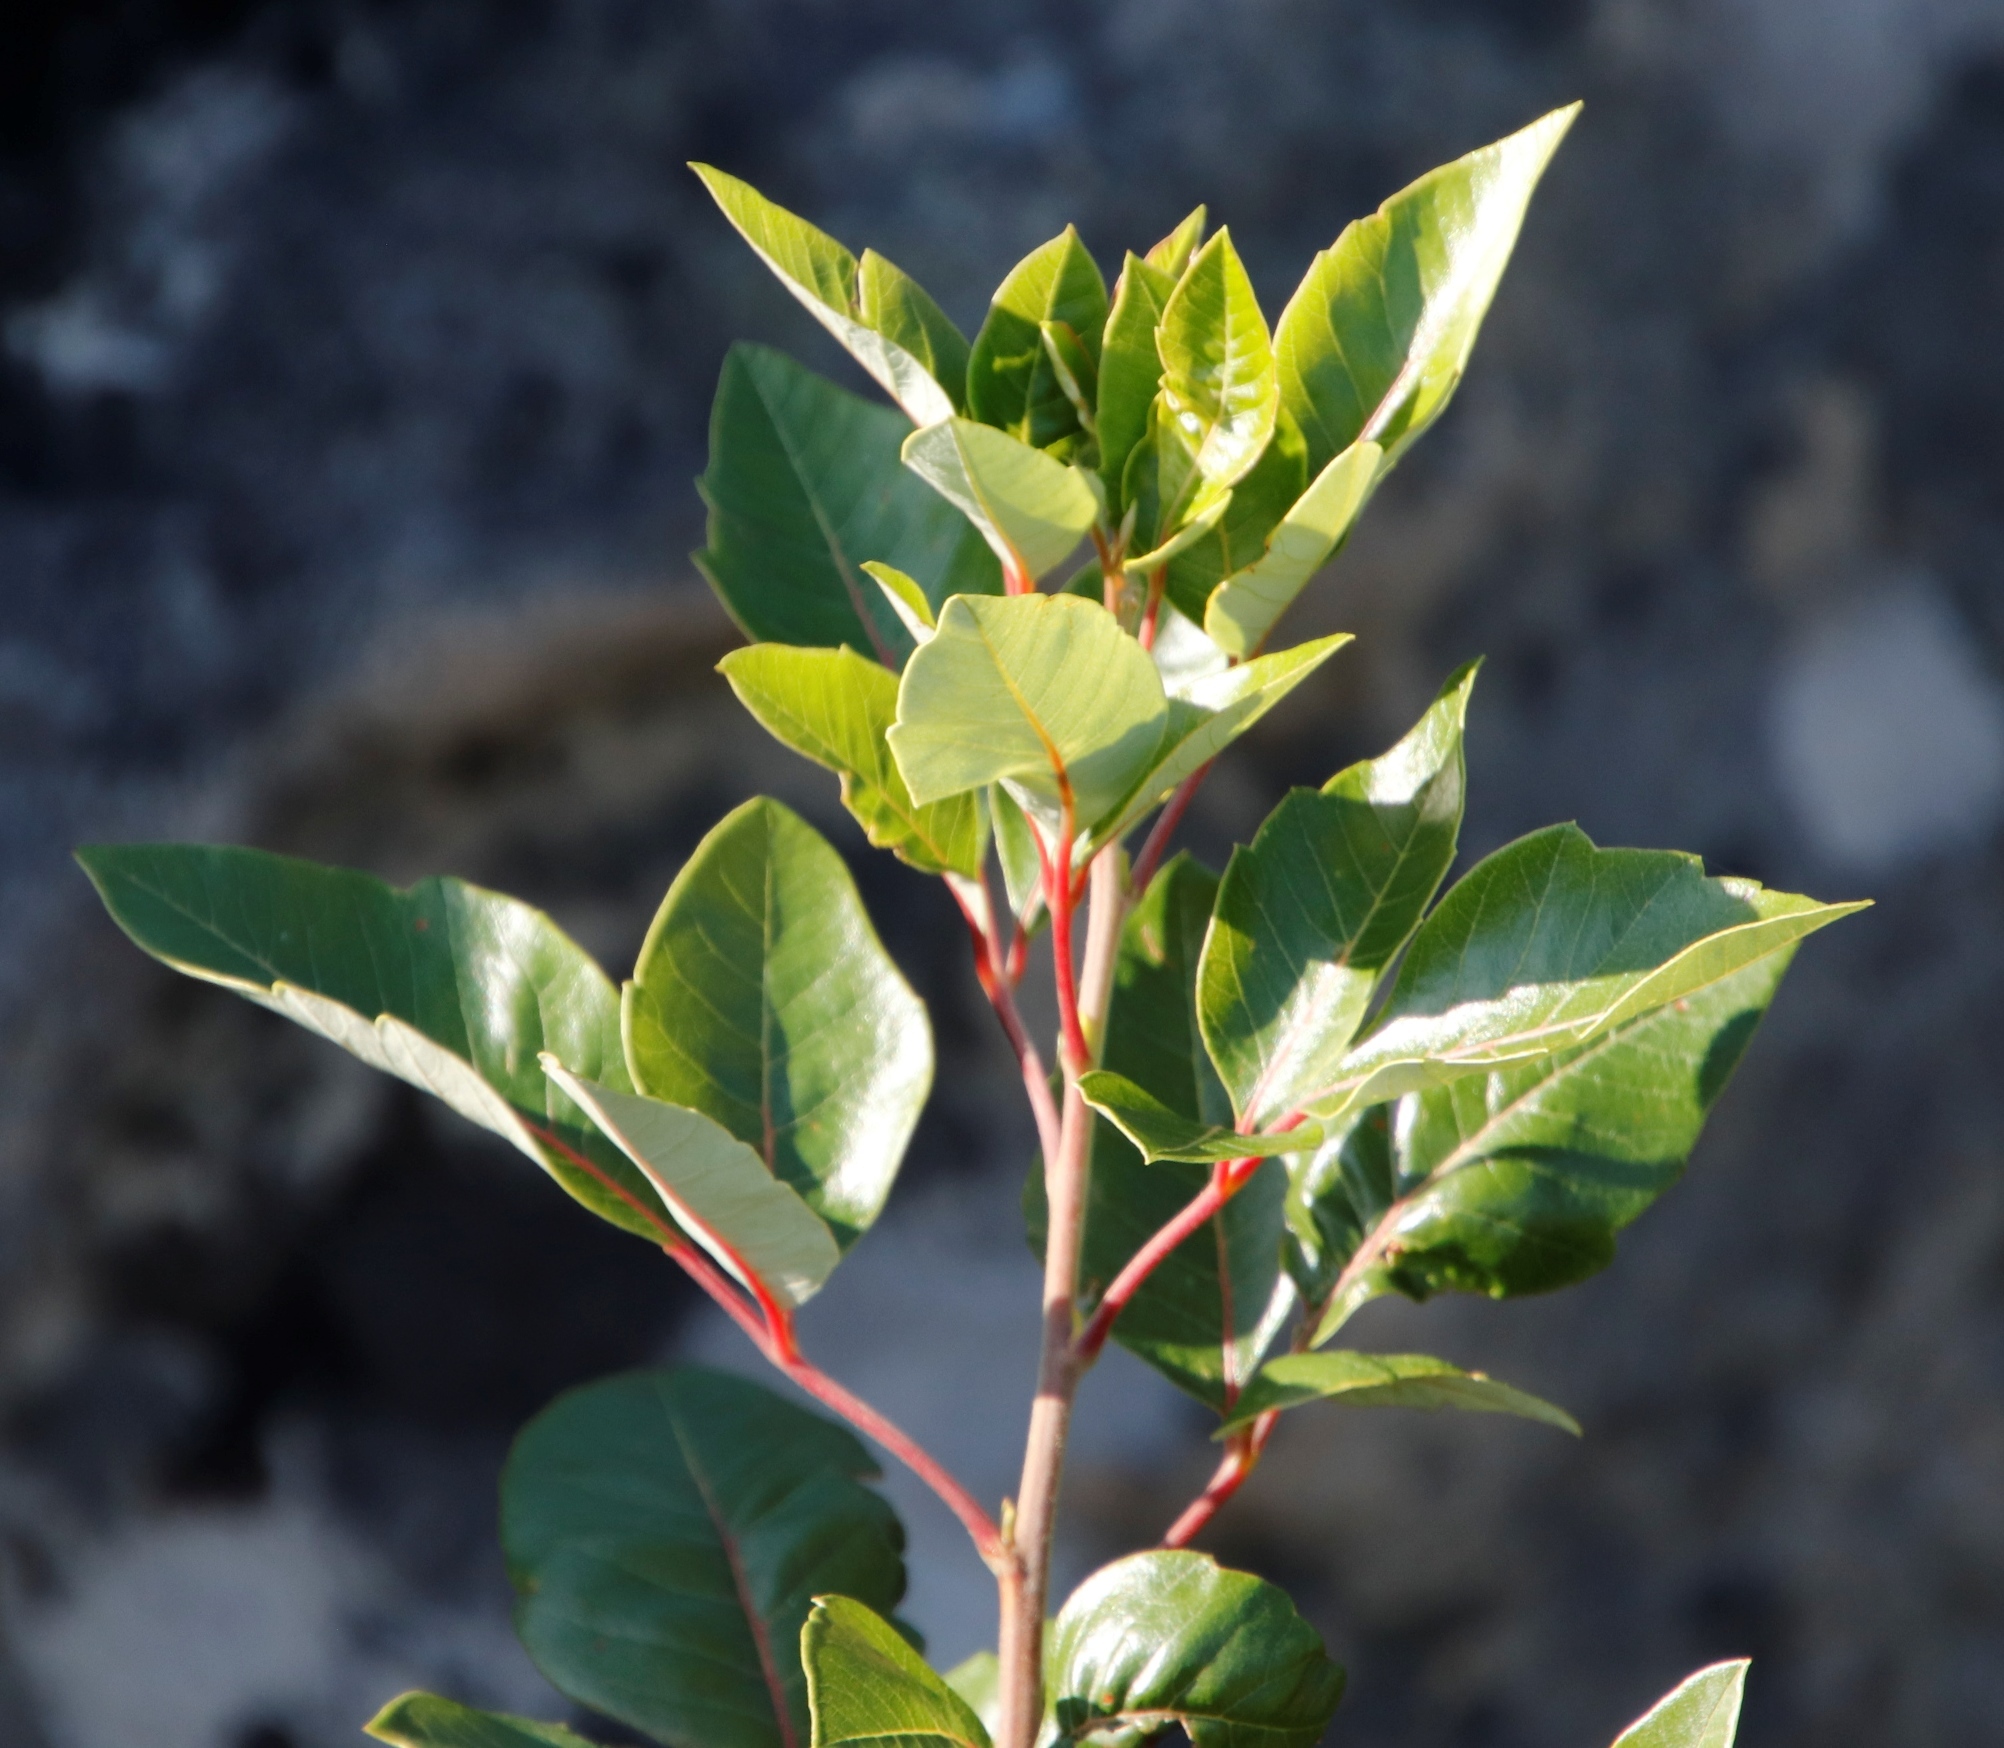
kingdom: Plantae
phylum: Tracheophyta
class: Magnoliopsida
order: Sapindales
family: Anacardiaceae
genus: Searsia
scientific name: Searsia tomentosa
